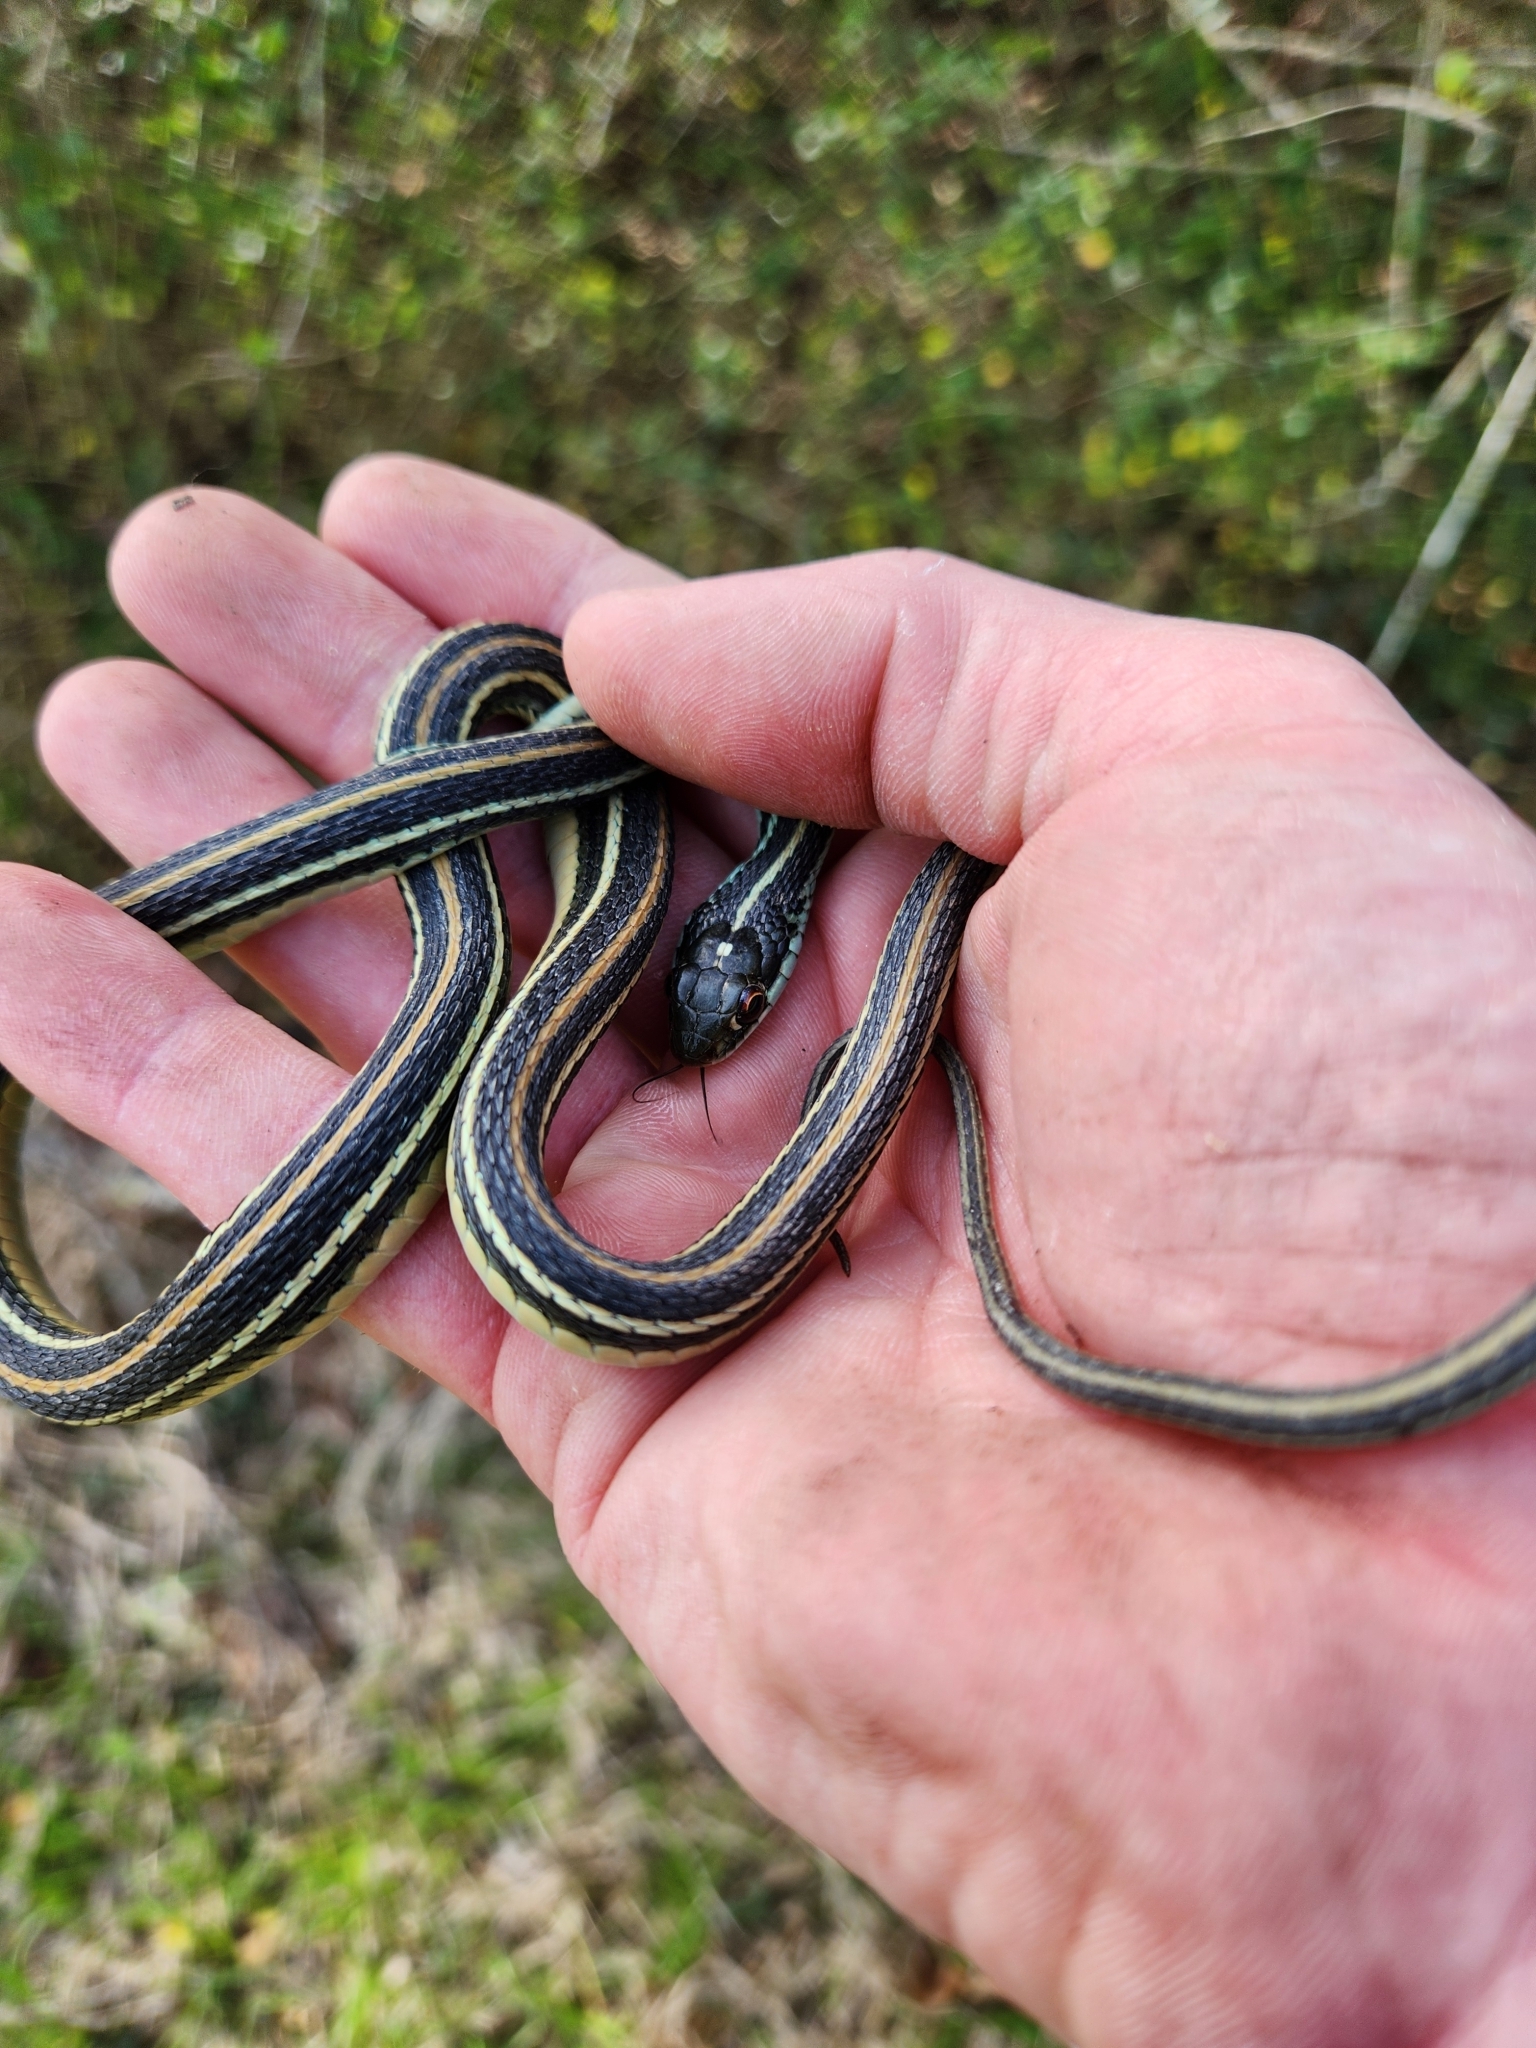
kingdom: Animalia
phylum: Chordata
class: Squamata
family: Colubridae
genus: Thamnophis
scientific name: Thamnophis proximus
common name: Western ribbon snake
